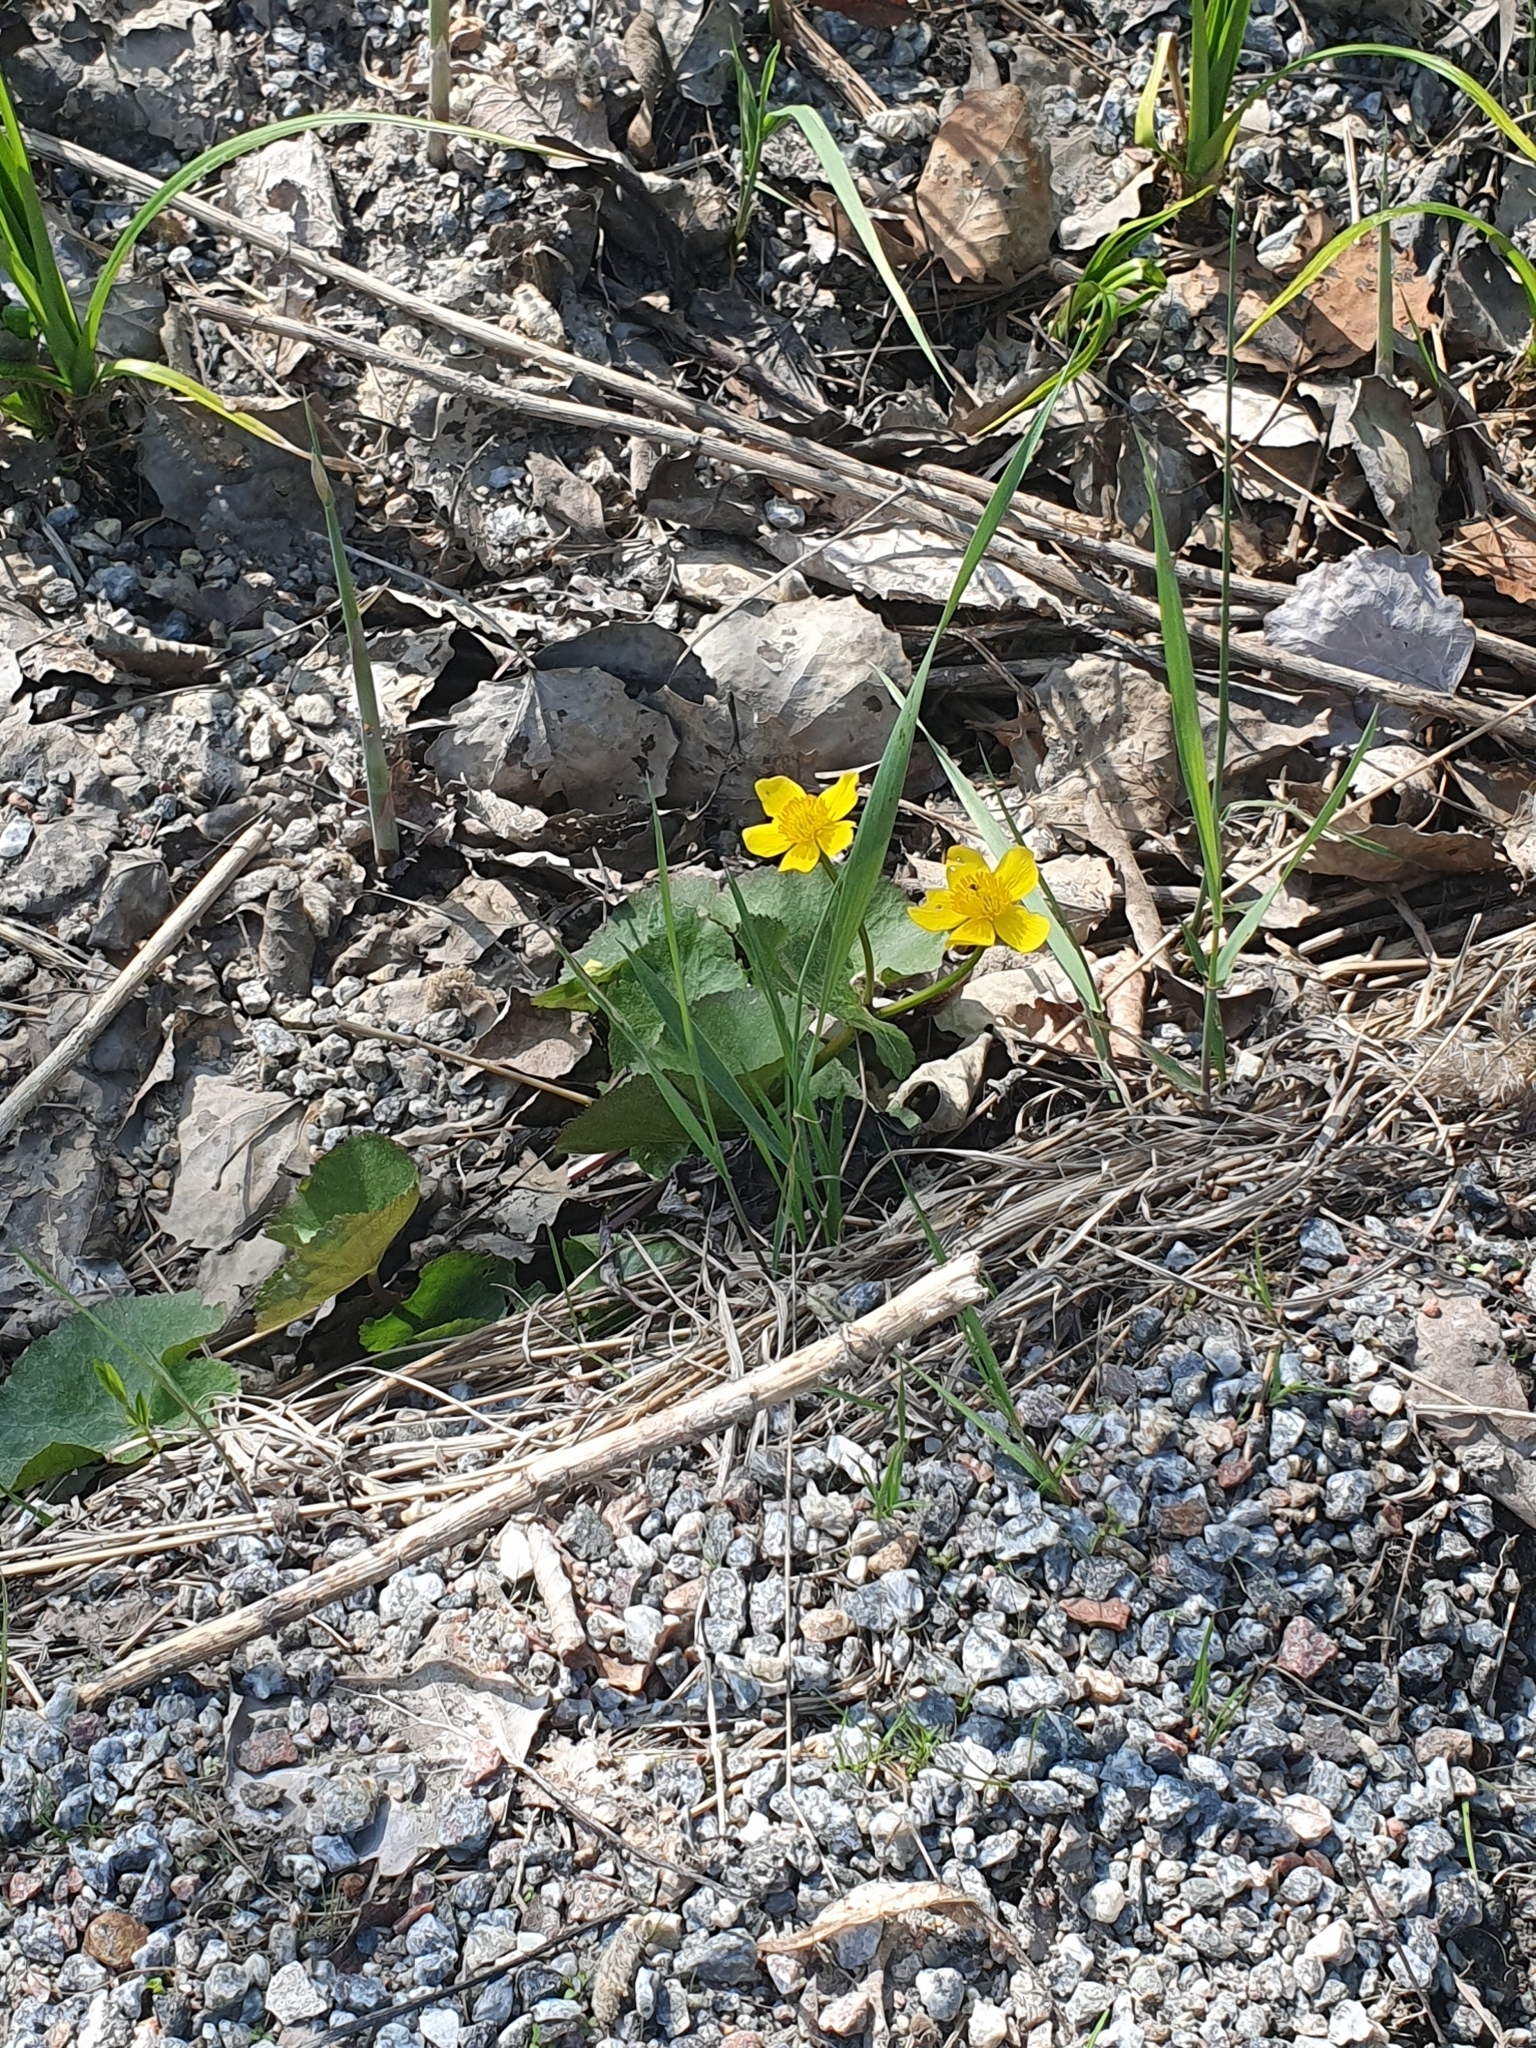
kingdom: Plantae
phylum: Tracheophyta
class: Magnoliopsida
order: Ranunculales
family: Ranunculaceae
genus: Caltha
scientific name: Caltha palustris
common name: Marsh marigold
